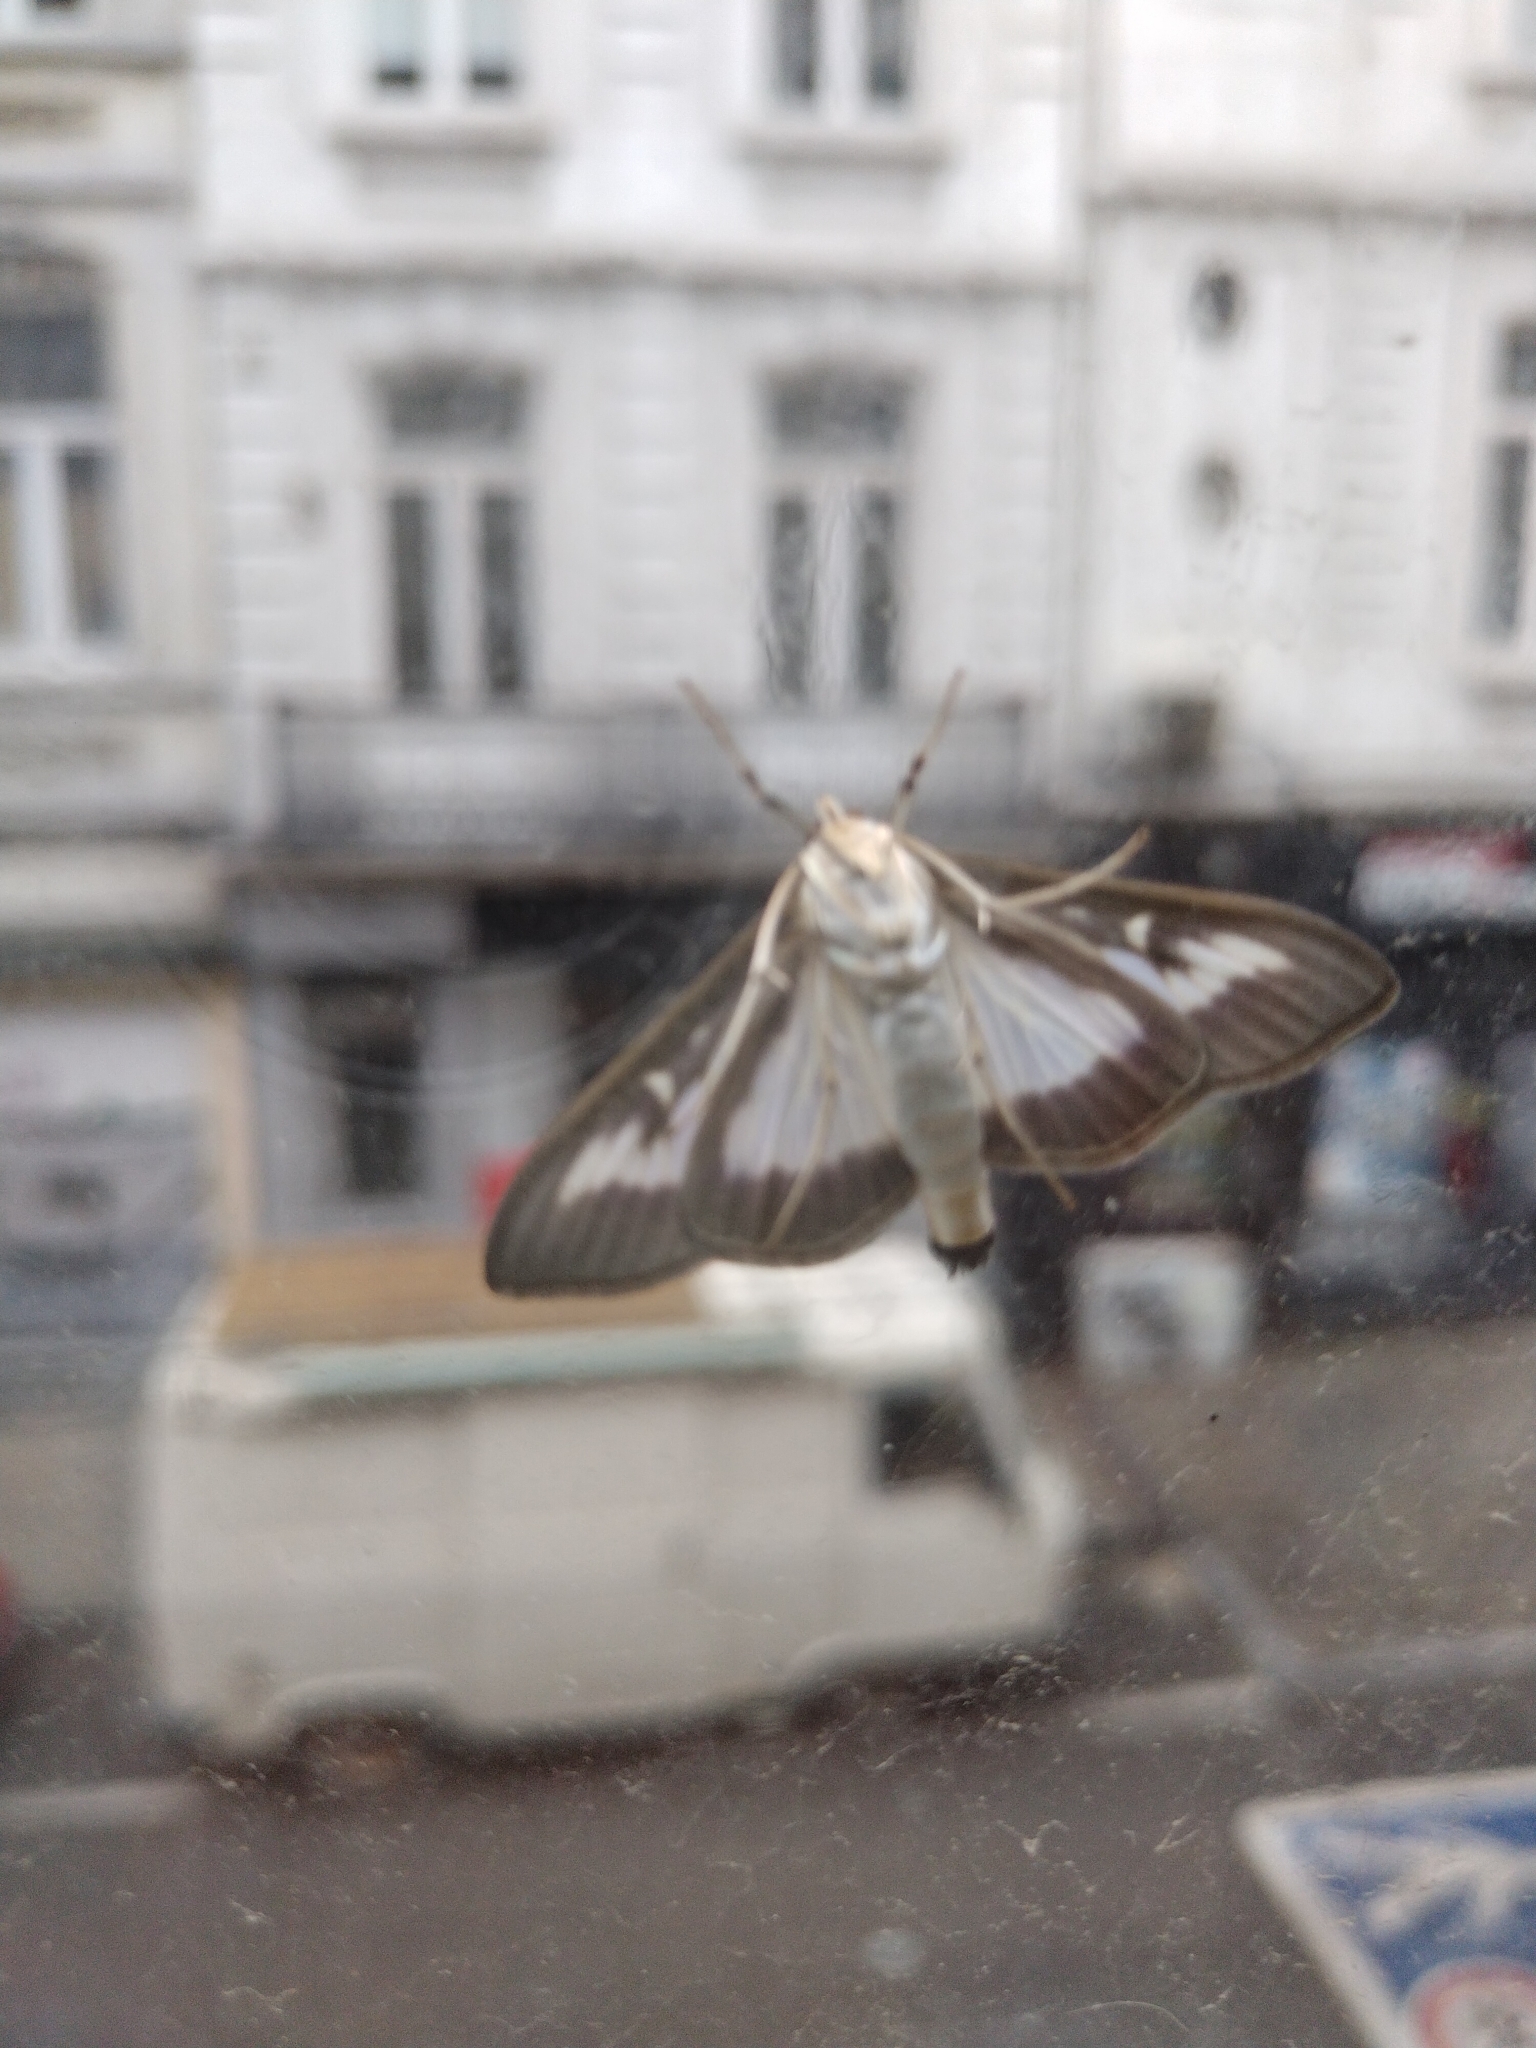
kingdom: Animalia
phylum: Arthropoda
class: Insecta
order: Lepidoptera
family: Crambidae
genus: Cydalima
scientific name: Cydalima perspectalis
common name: Box tree moth
